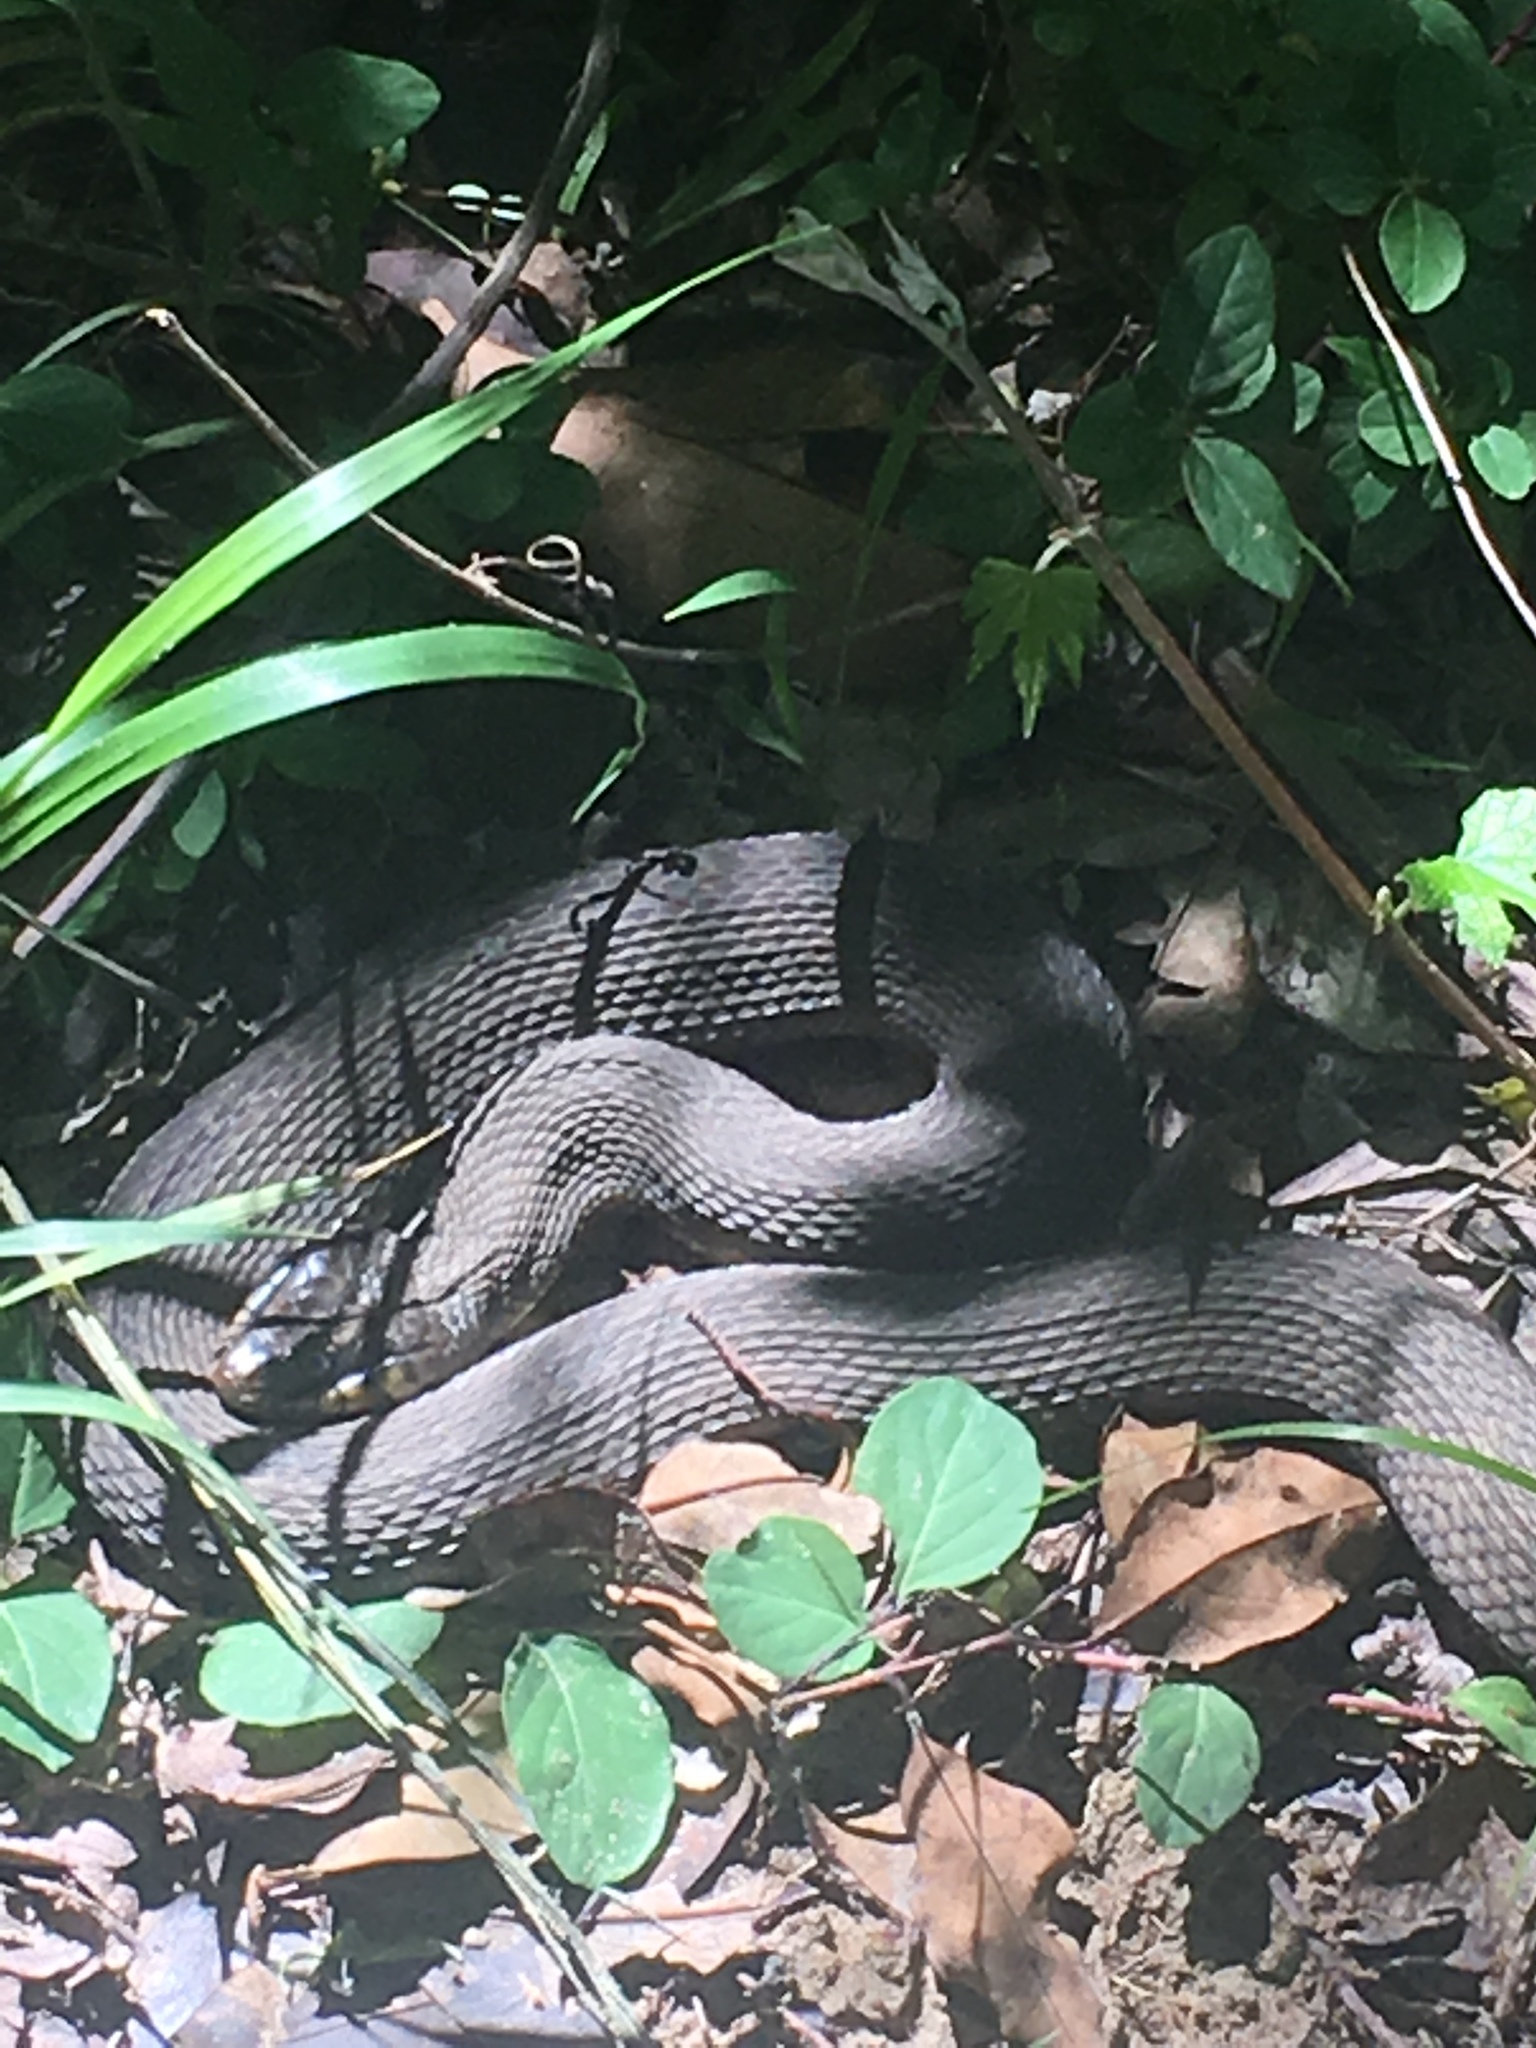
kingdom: Animalia
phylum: Chordata
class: Squamata
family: Colubridae
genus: Nerodia
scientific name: Nerodia erythrogaster
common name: Plainbelly water snake
